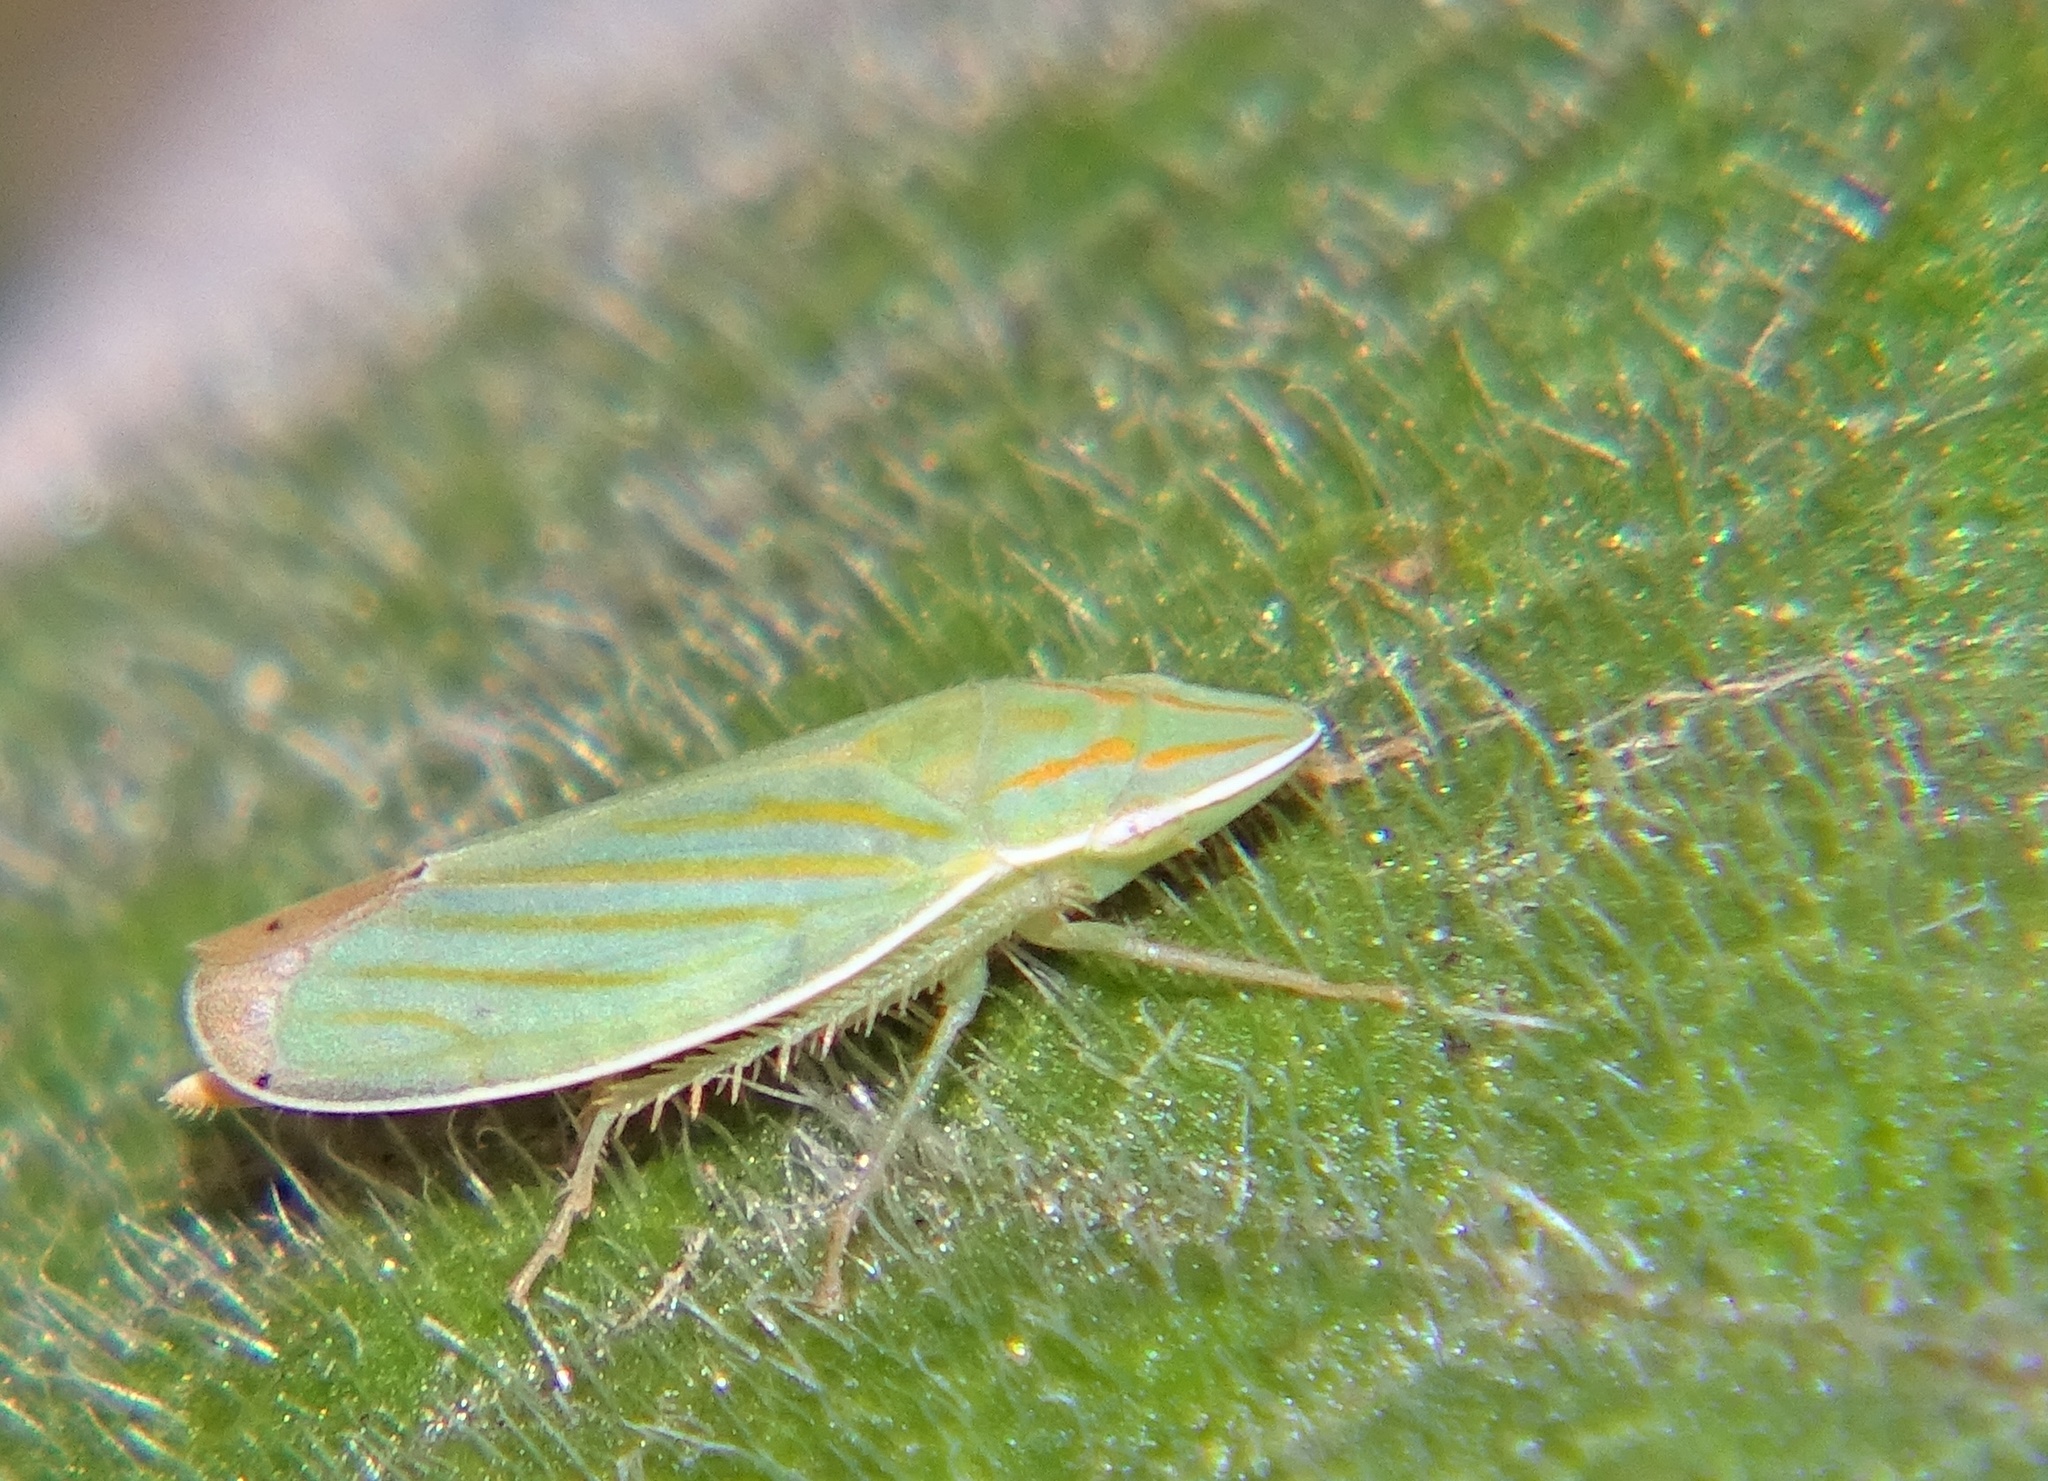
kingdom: Animalia
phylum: Arthropoda
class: Insecta
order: Hemiptera
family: Cicadellidae
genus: Spangbergiella
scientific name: Spangbergiella mexicana
